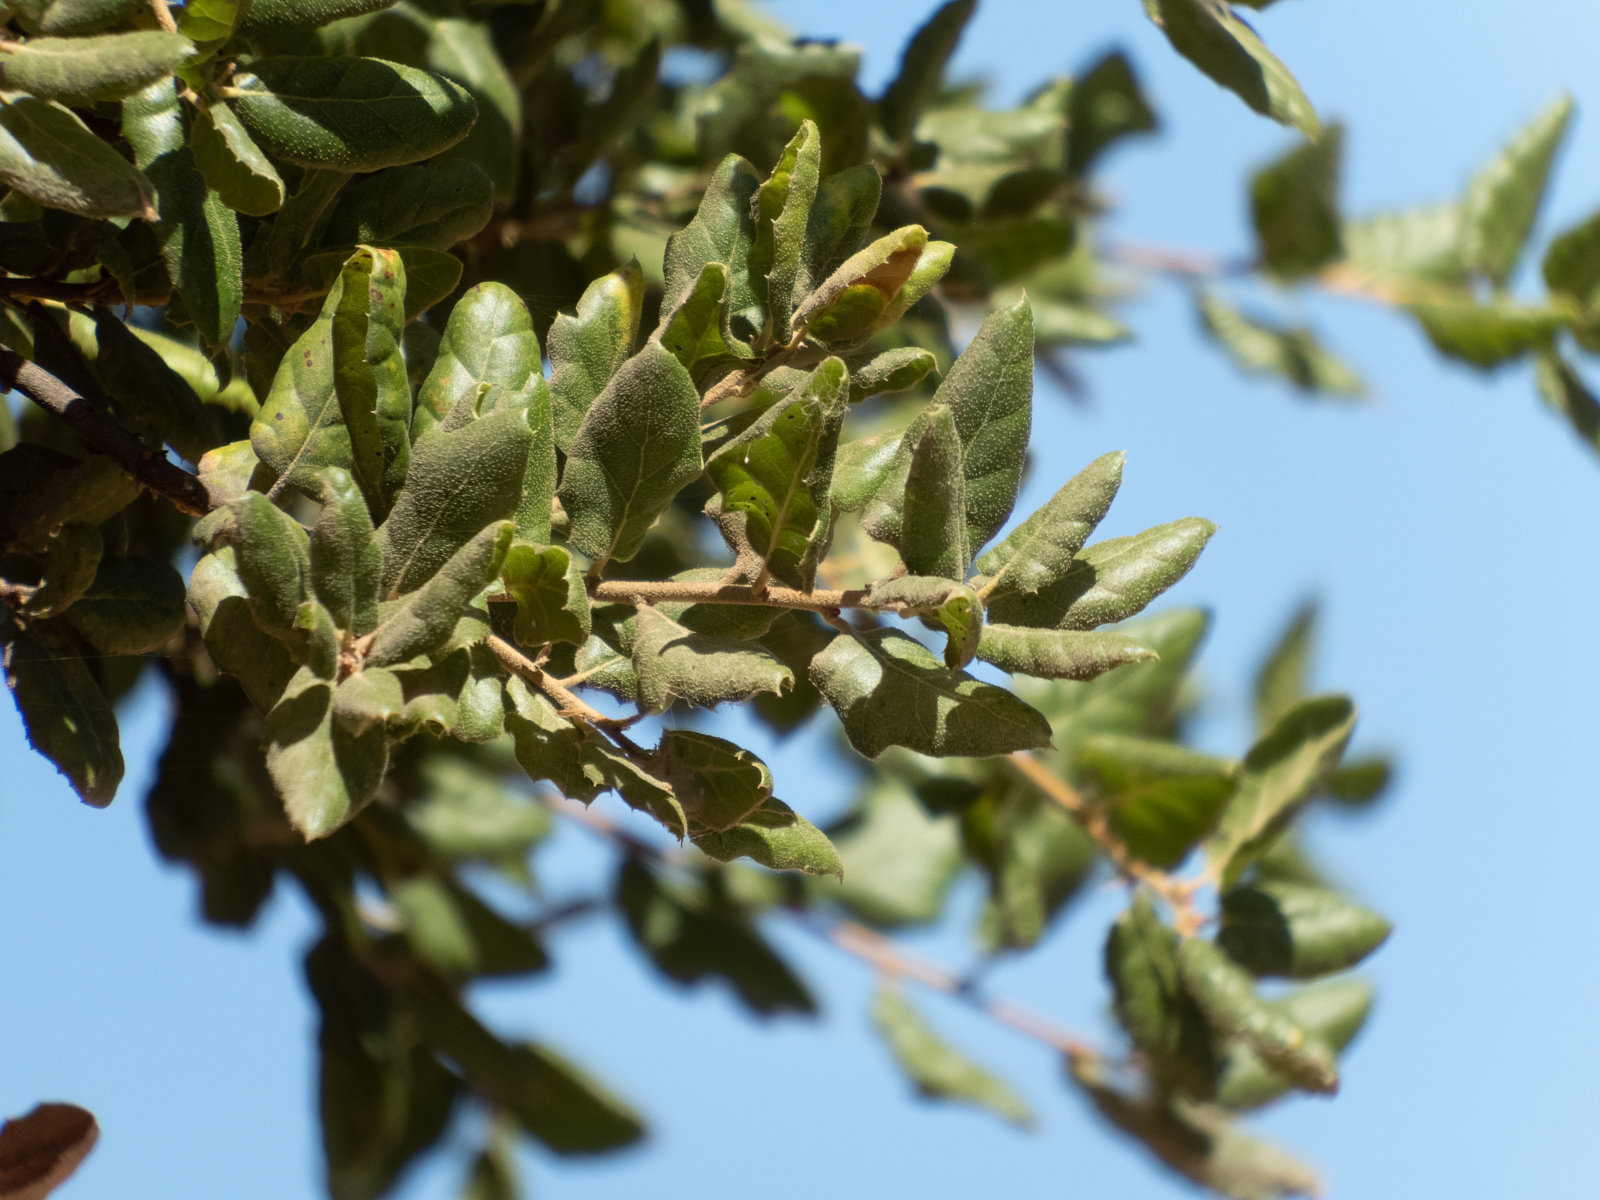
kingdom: Plantae
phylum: Tracheophyta
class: Magnoliopsida
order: Fagales
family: Fagaceae
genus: Quercus
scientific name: Quercus agrifolia
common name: California live oak
